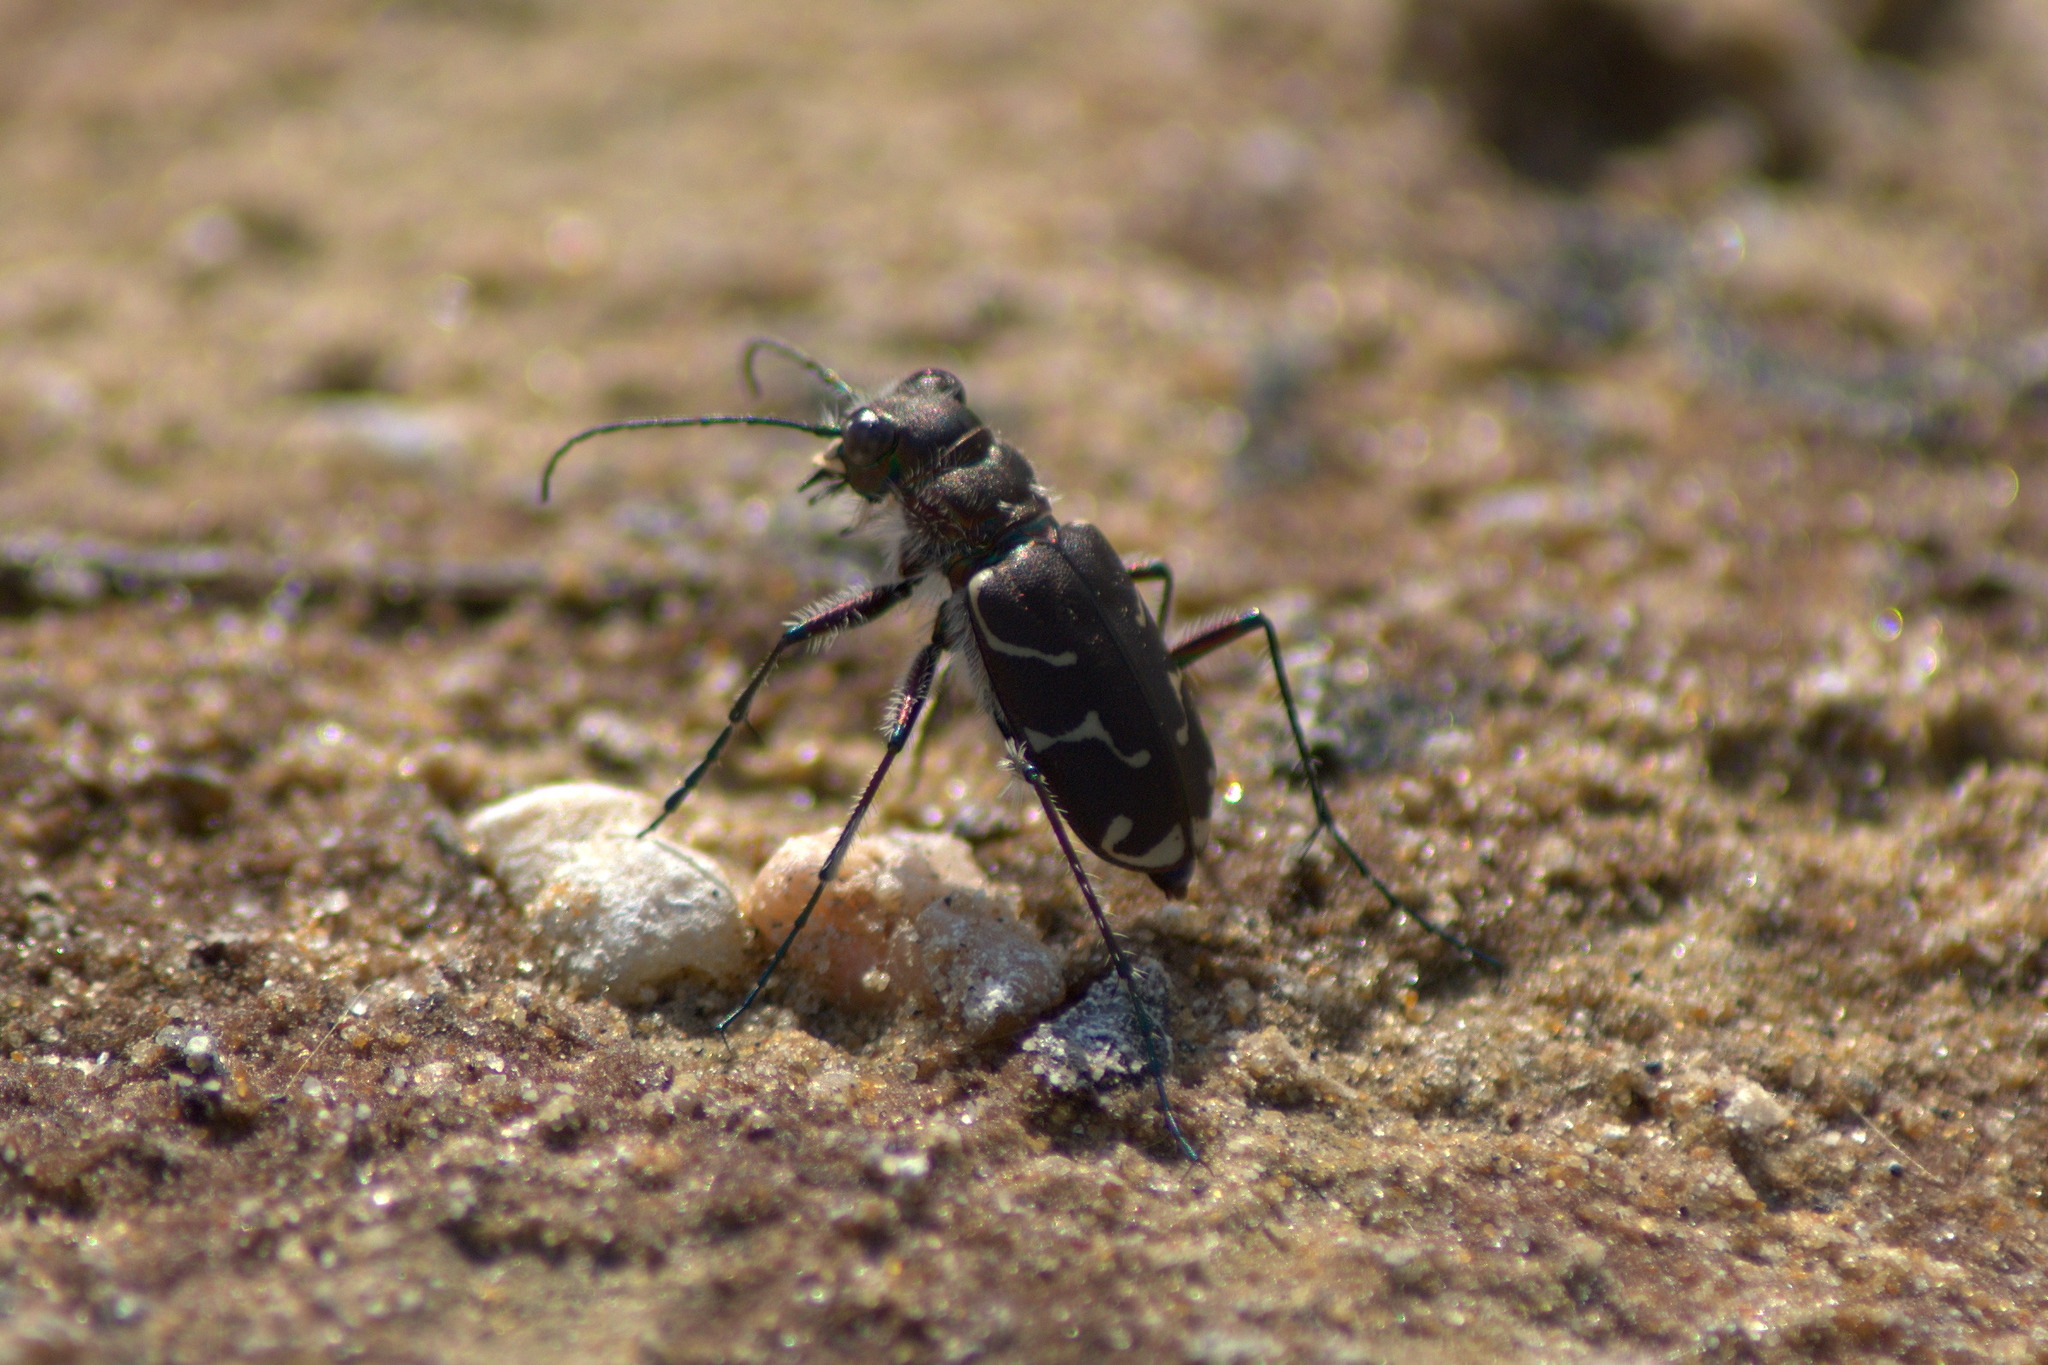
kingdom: Animalia
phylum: Arthropoda
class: Insecta
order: Coleoptera
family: Carabidae
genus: Cicindela
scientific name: Cicindela tranquebarica
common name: Oblique-lined tiger beetle
